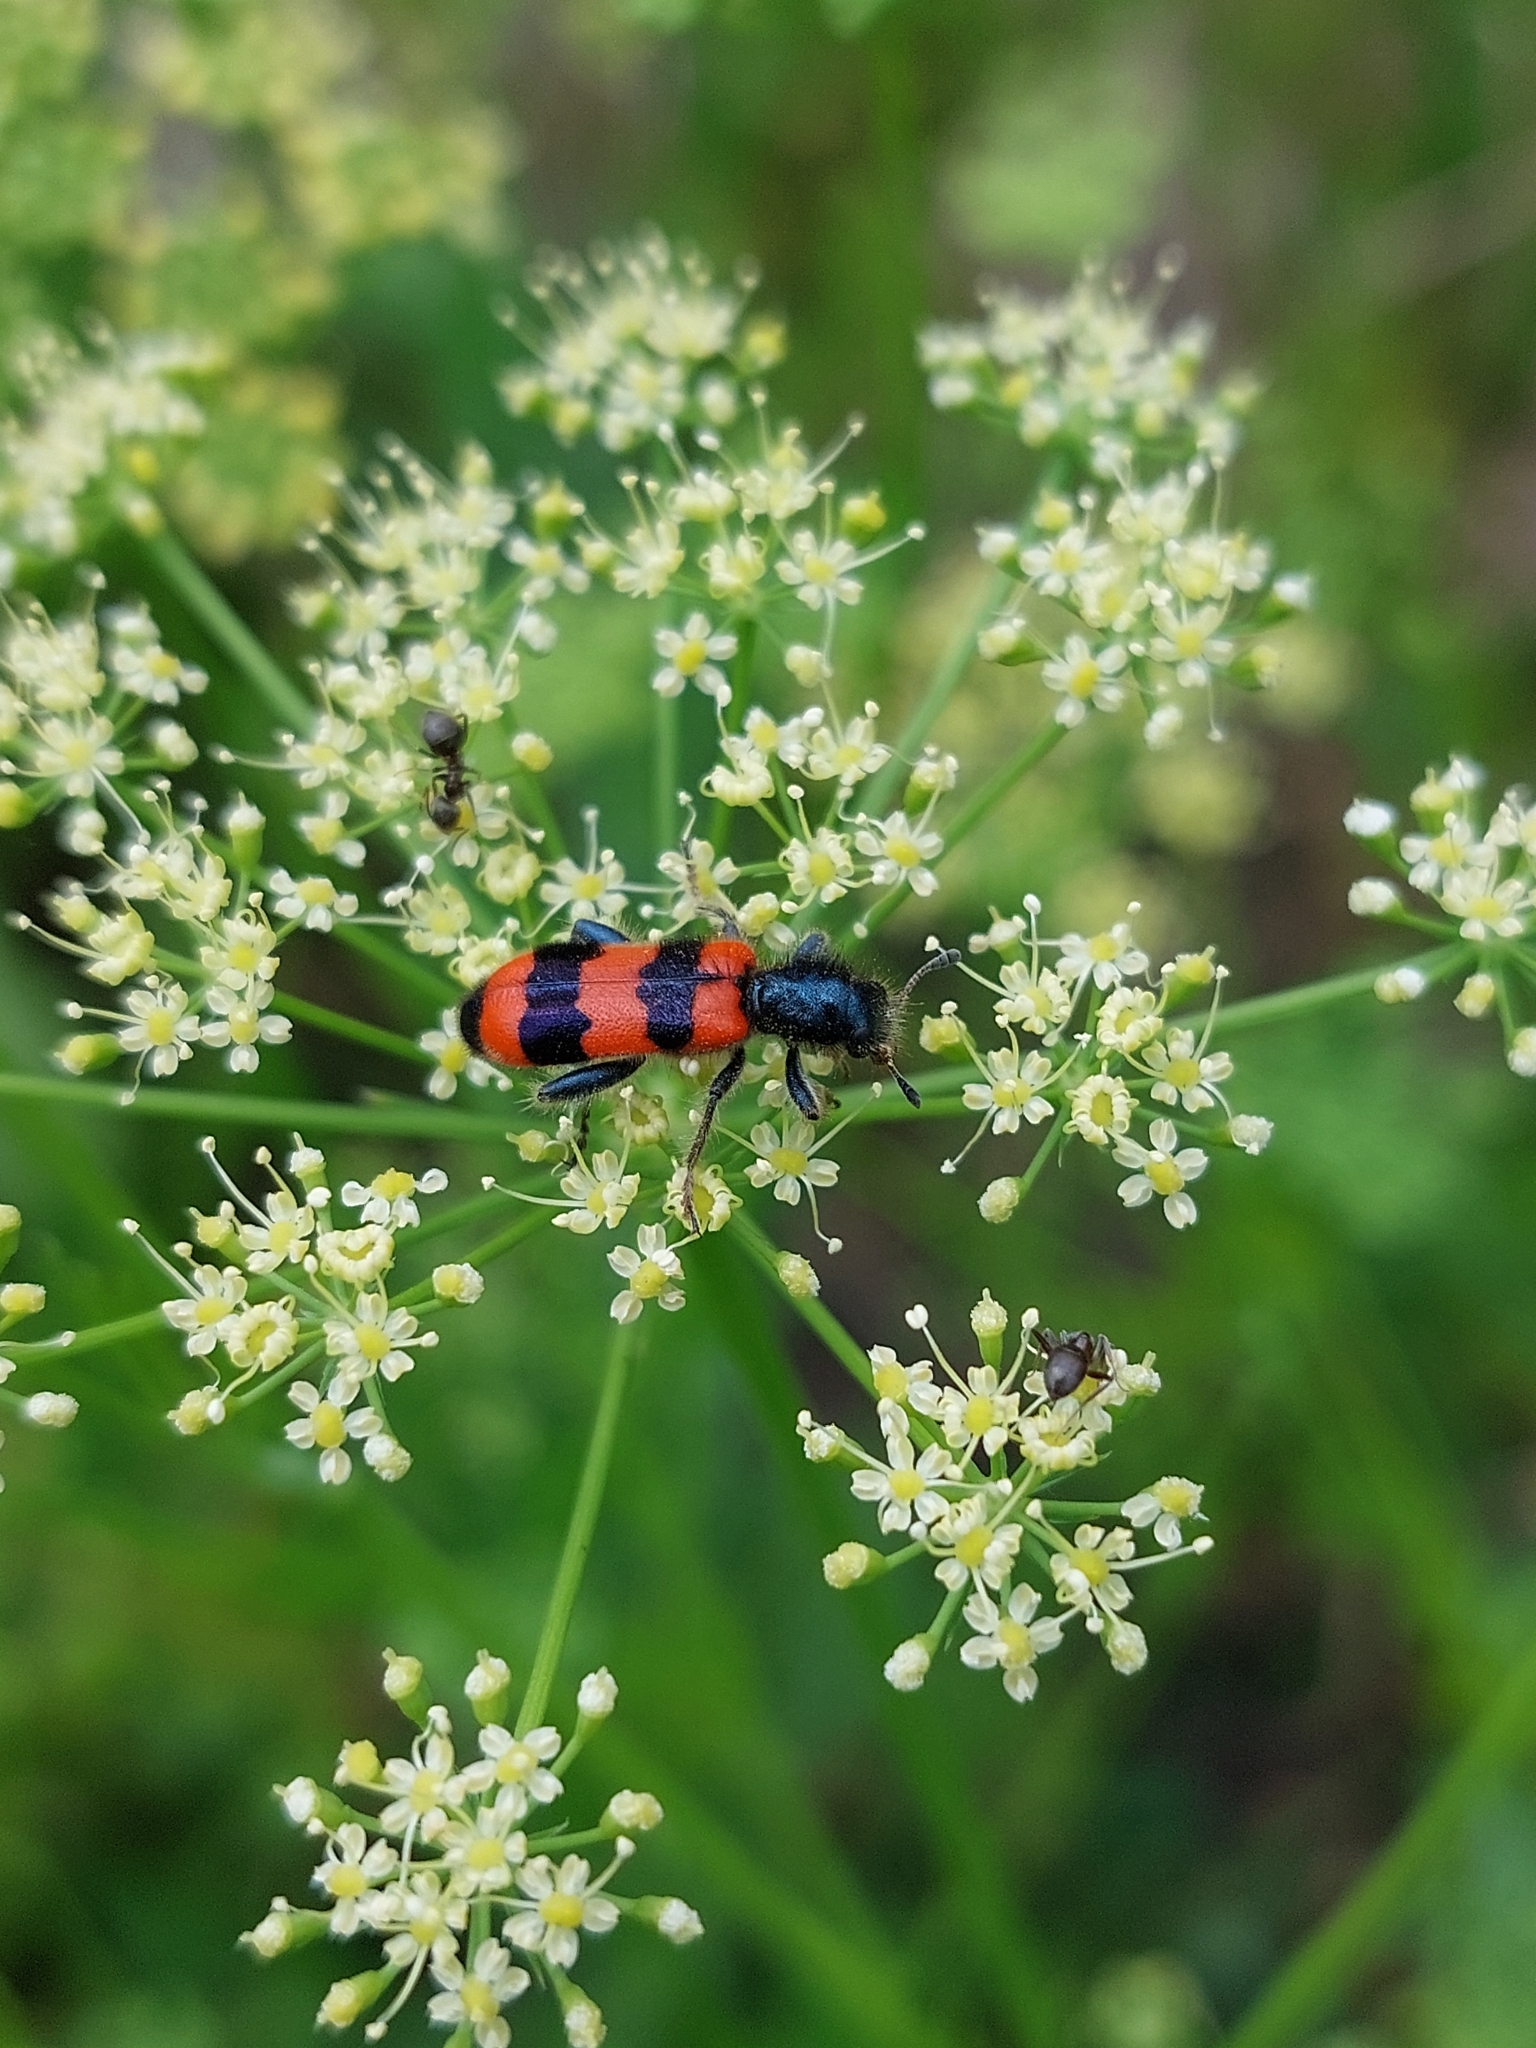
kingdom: Animalia
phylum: Arthropoda
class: Insecta
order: Coleoptera
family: Cleridae
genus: Trichodes
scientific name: Trichodes apiarius
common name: Bee-eating beetle
